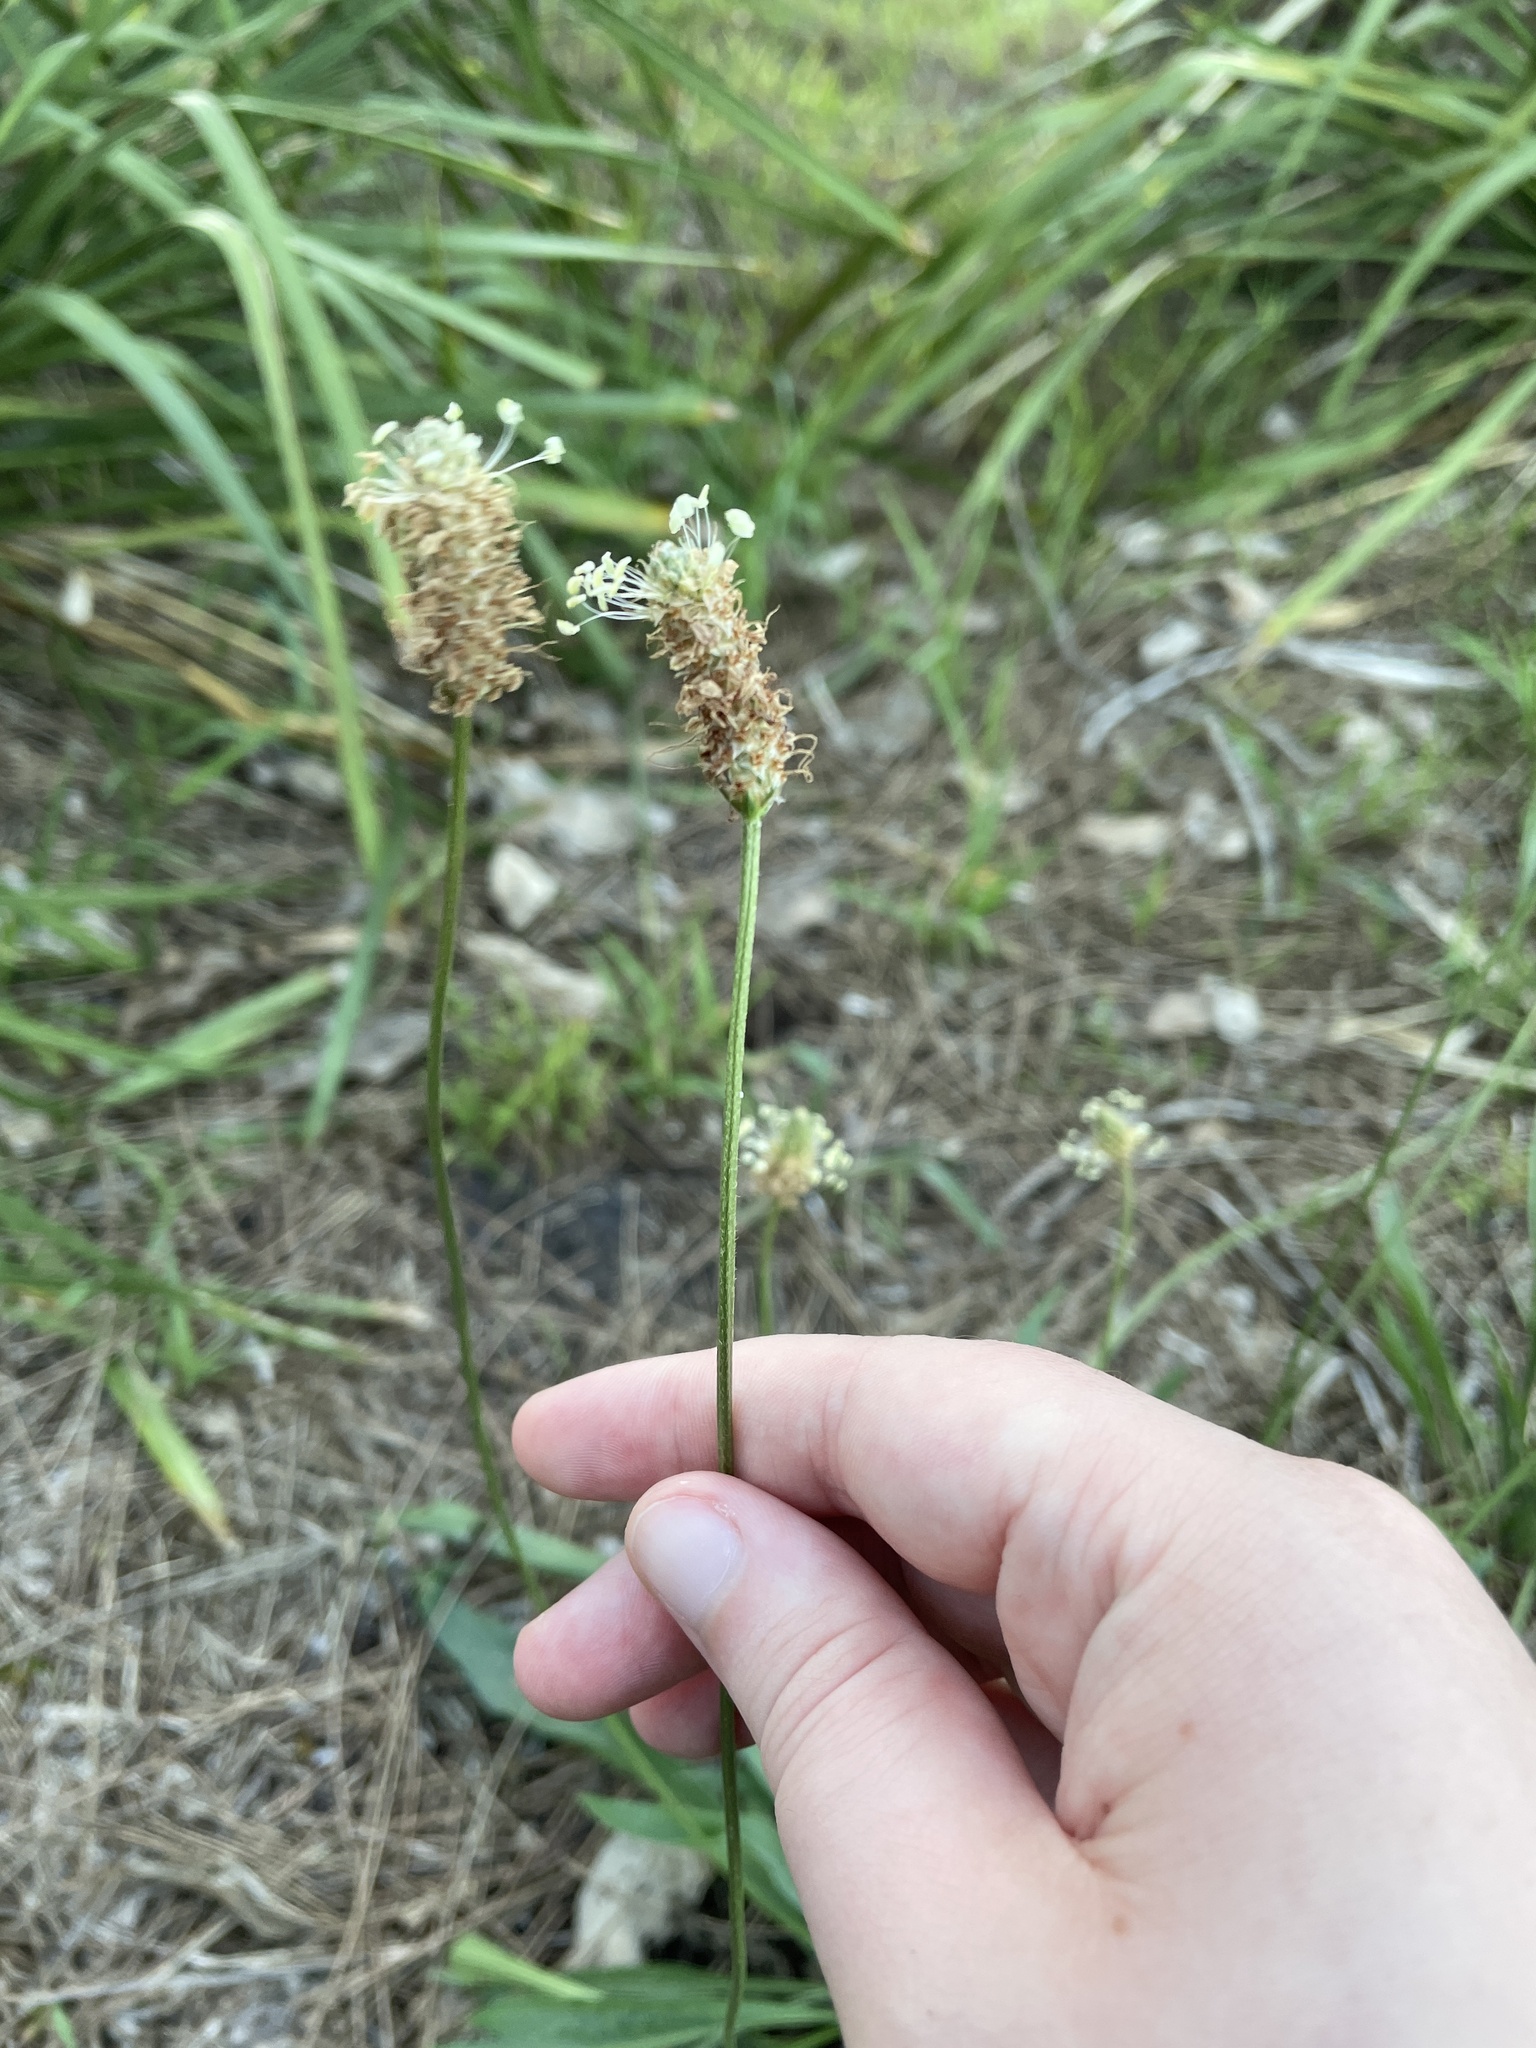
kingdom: Plantae
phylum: Tracheophyta
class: Magnoliopsida
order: Lamiales
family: Plantaginaceae
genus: Plantago
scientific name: Plantago lanceolata
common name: Ribwort plantain
